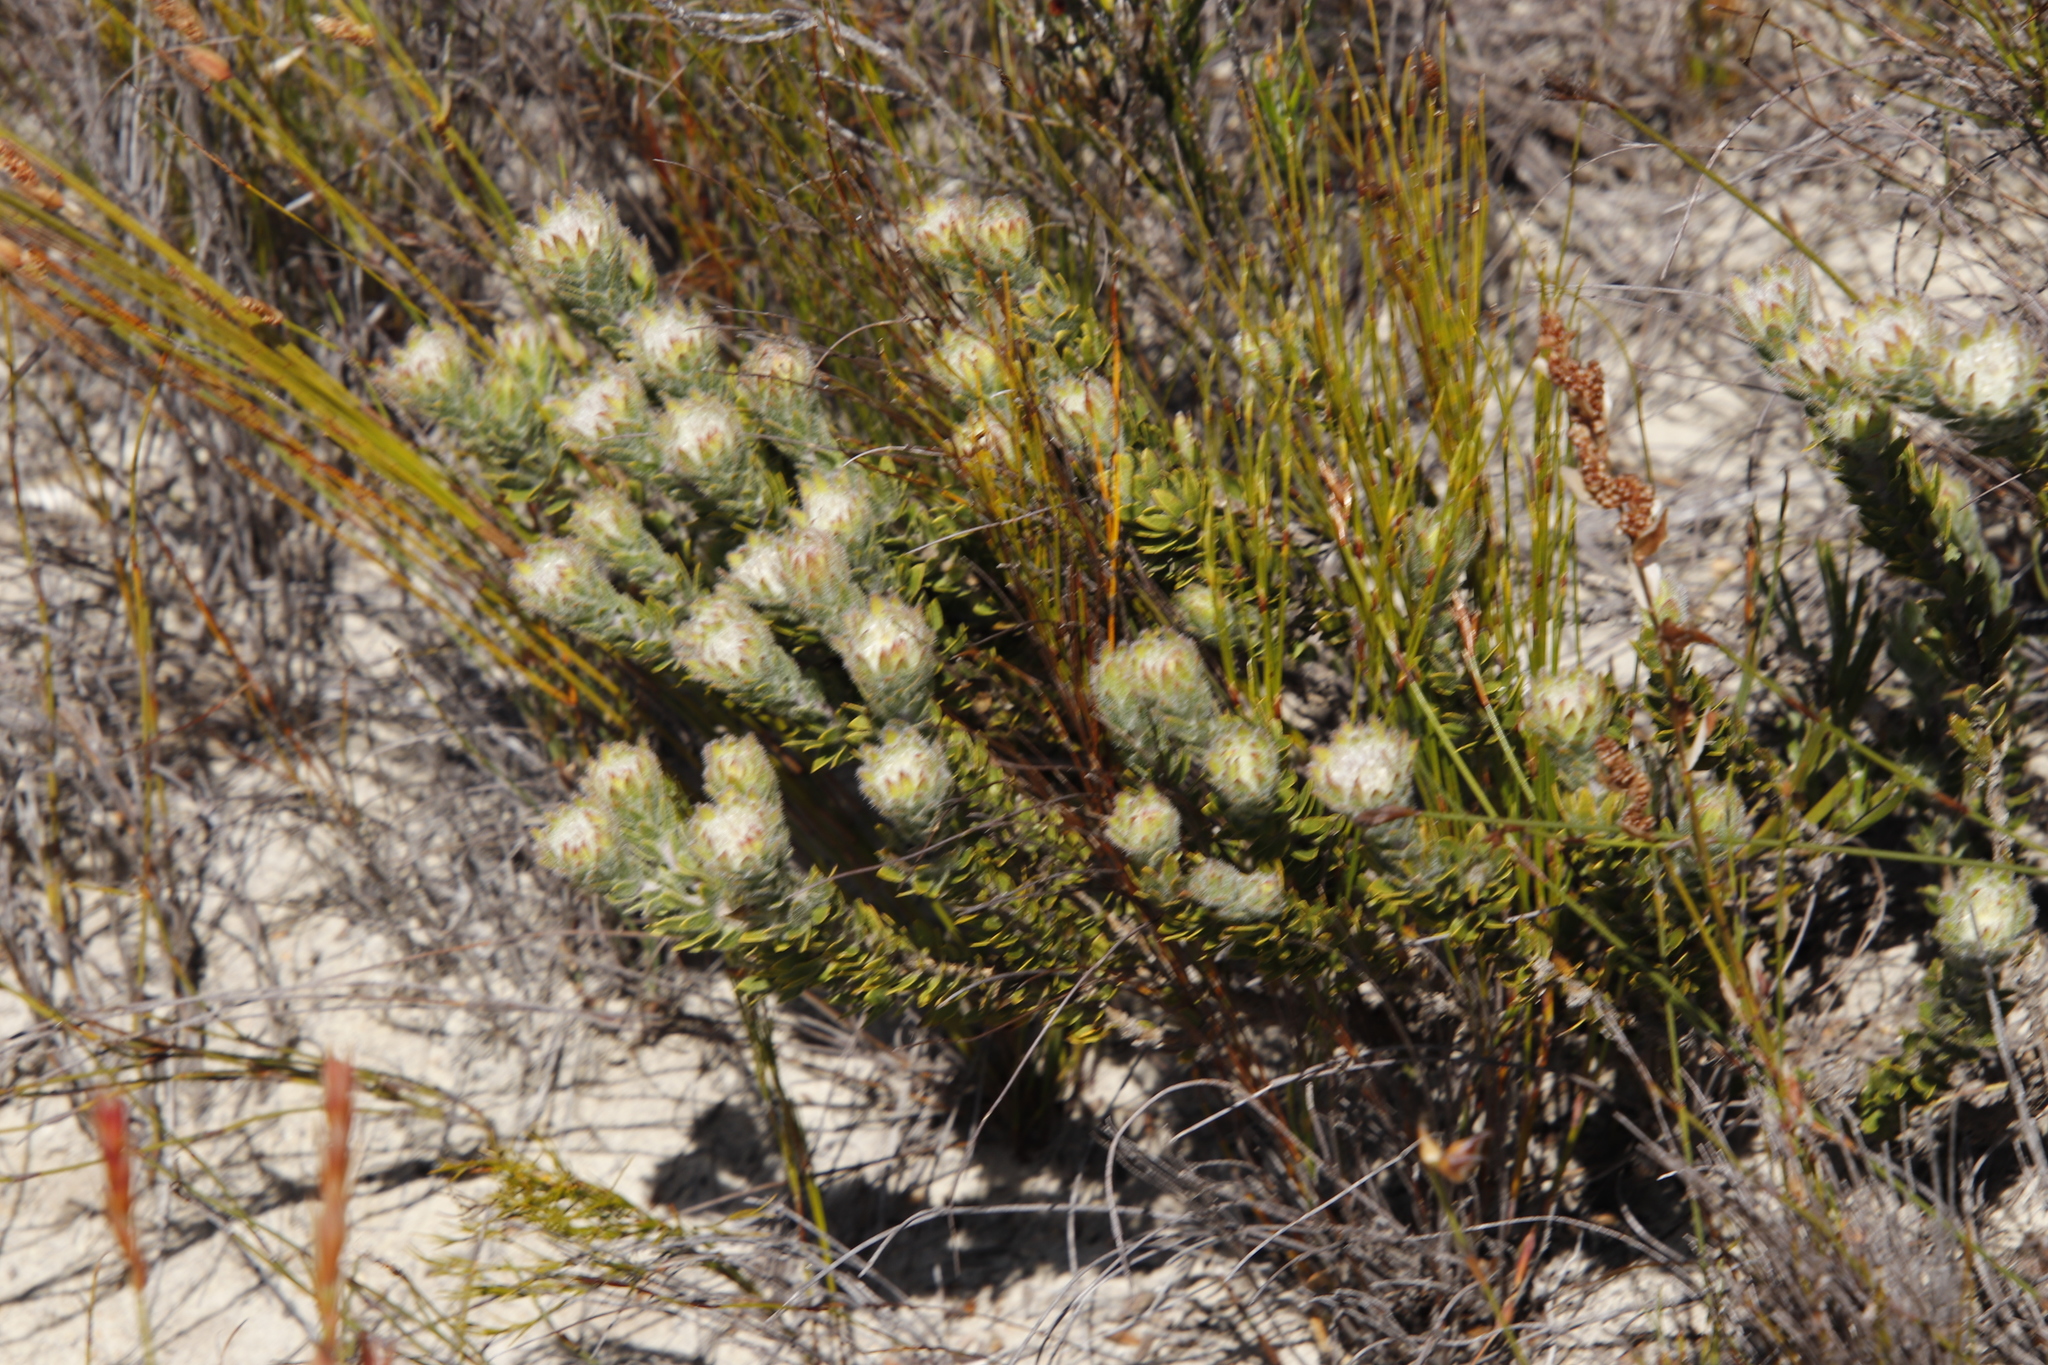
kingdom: Plantae
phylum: Tracheophyta
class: Magnoliopsida
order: Fabales
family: Fabaceae
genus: Aspalathus
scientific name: Aspalathus aspalathoides
